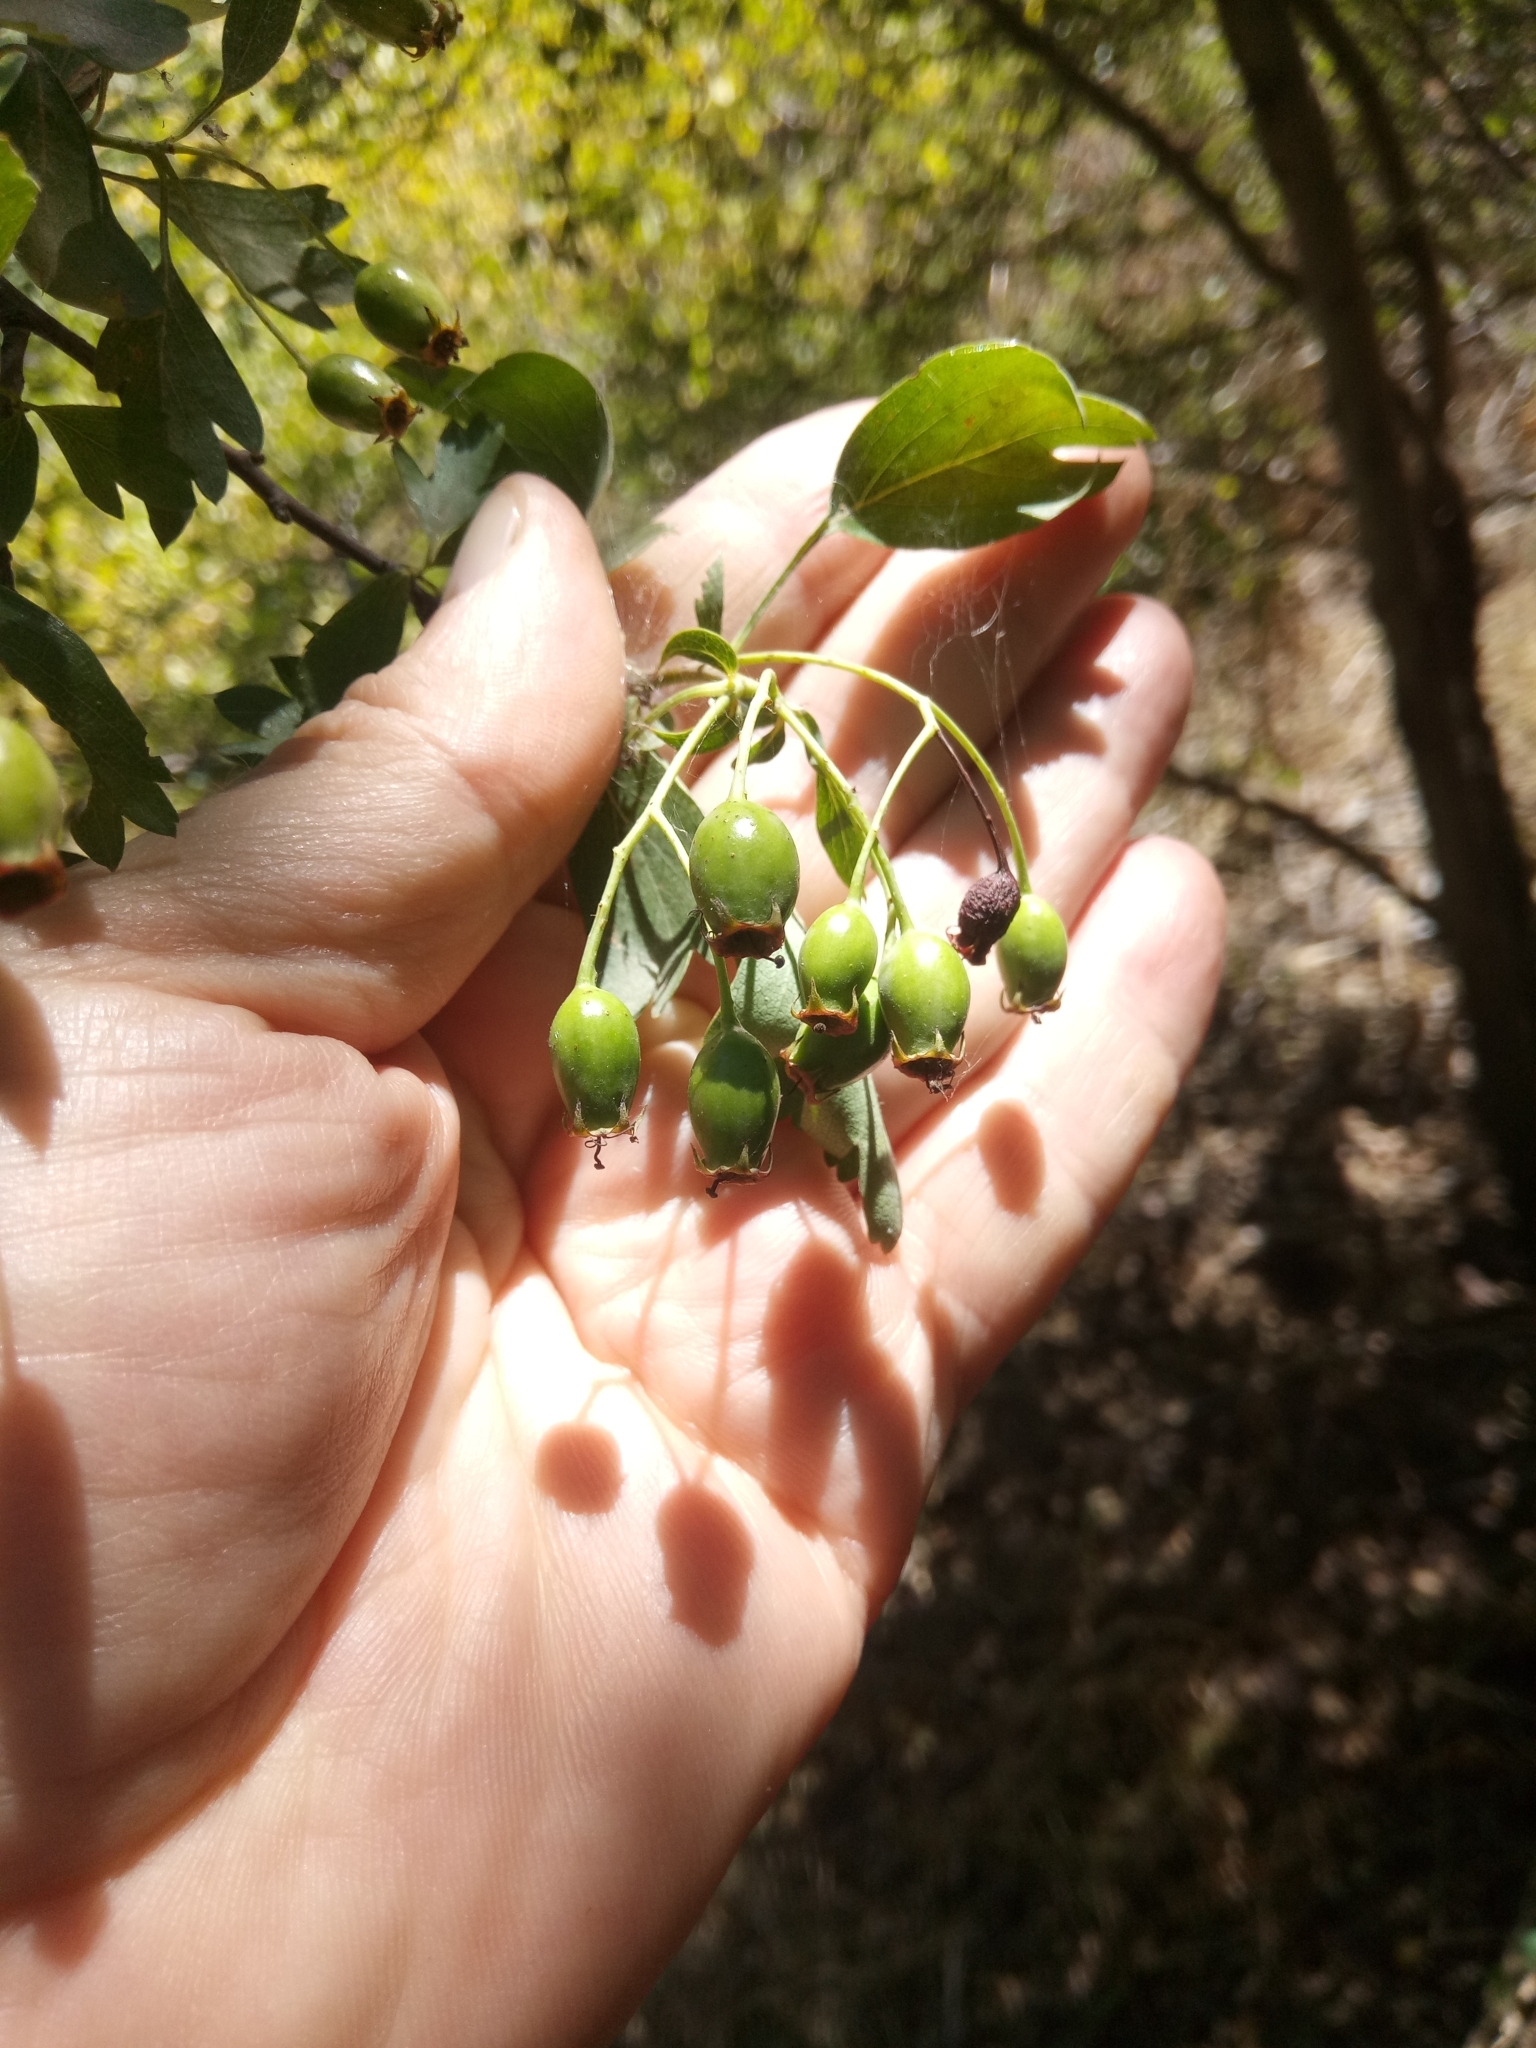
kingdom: Plantae
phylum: Tracheophyta
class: Magnoliopsida
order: Rosales
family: Rosaceae
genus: Crataegus
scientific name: Crataegus monogyna
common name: Hawthorn
